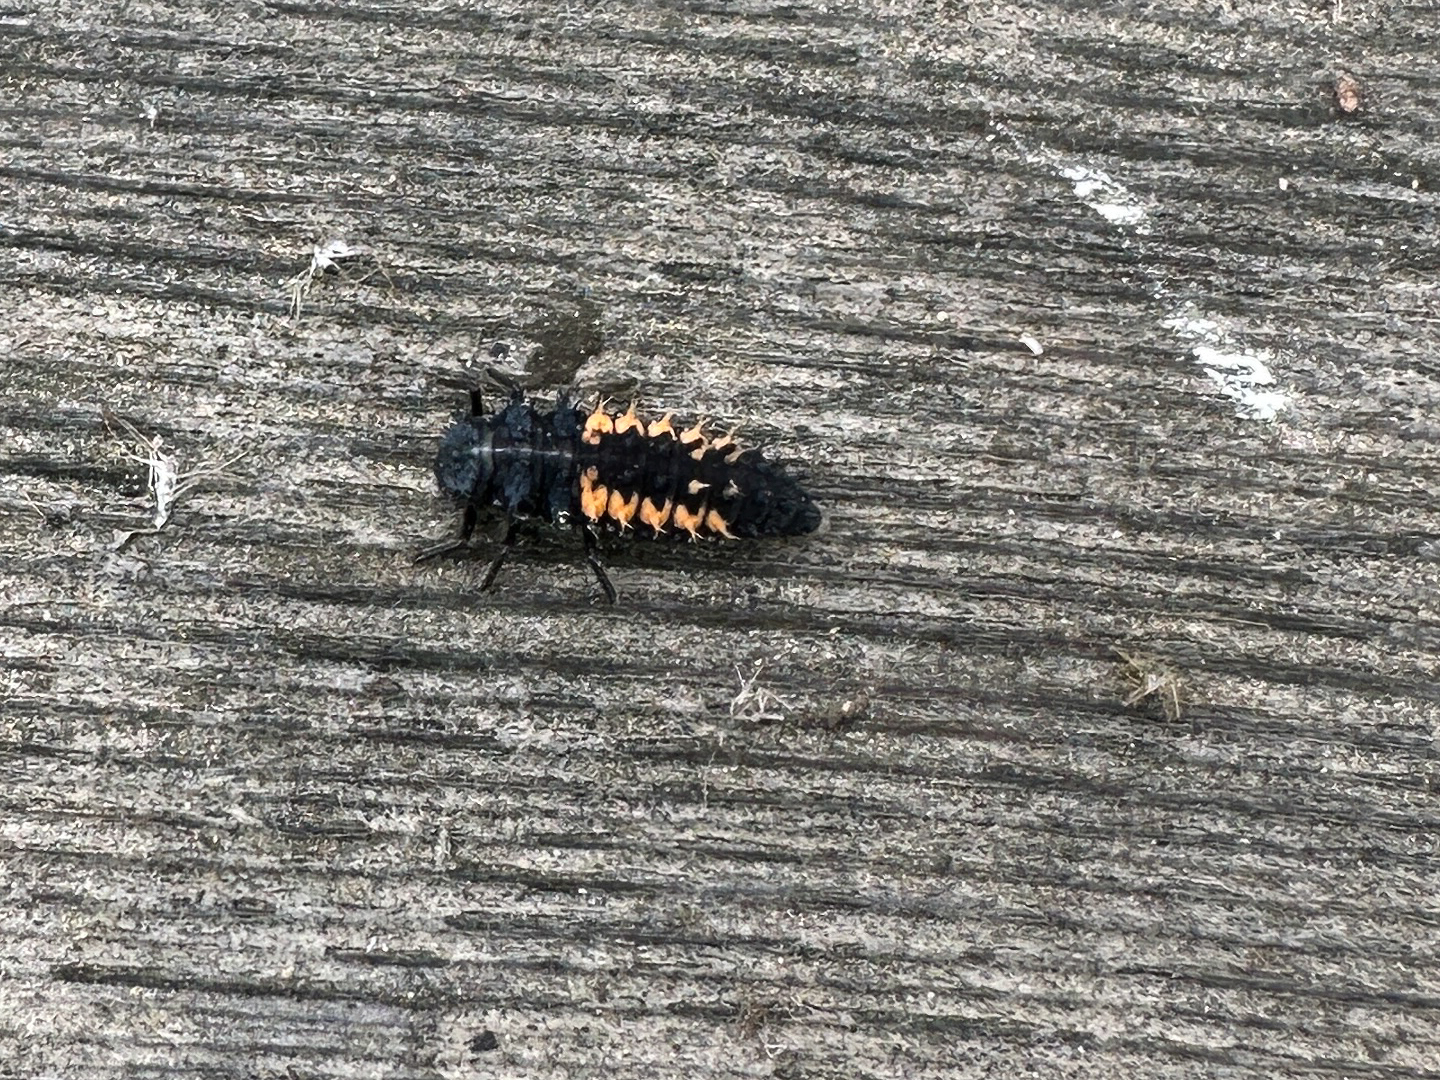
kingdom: Animalia
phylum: Arthropoda
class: Insecta
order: Coleoptera
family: Coccinellidae
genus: Harmonia
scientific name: Harmonia axyridis
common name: Harlequin ladybird
